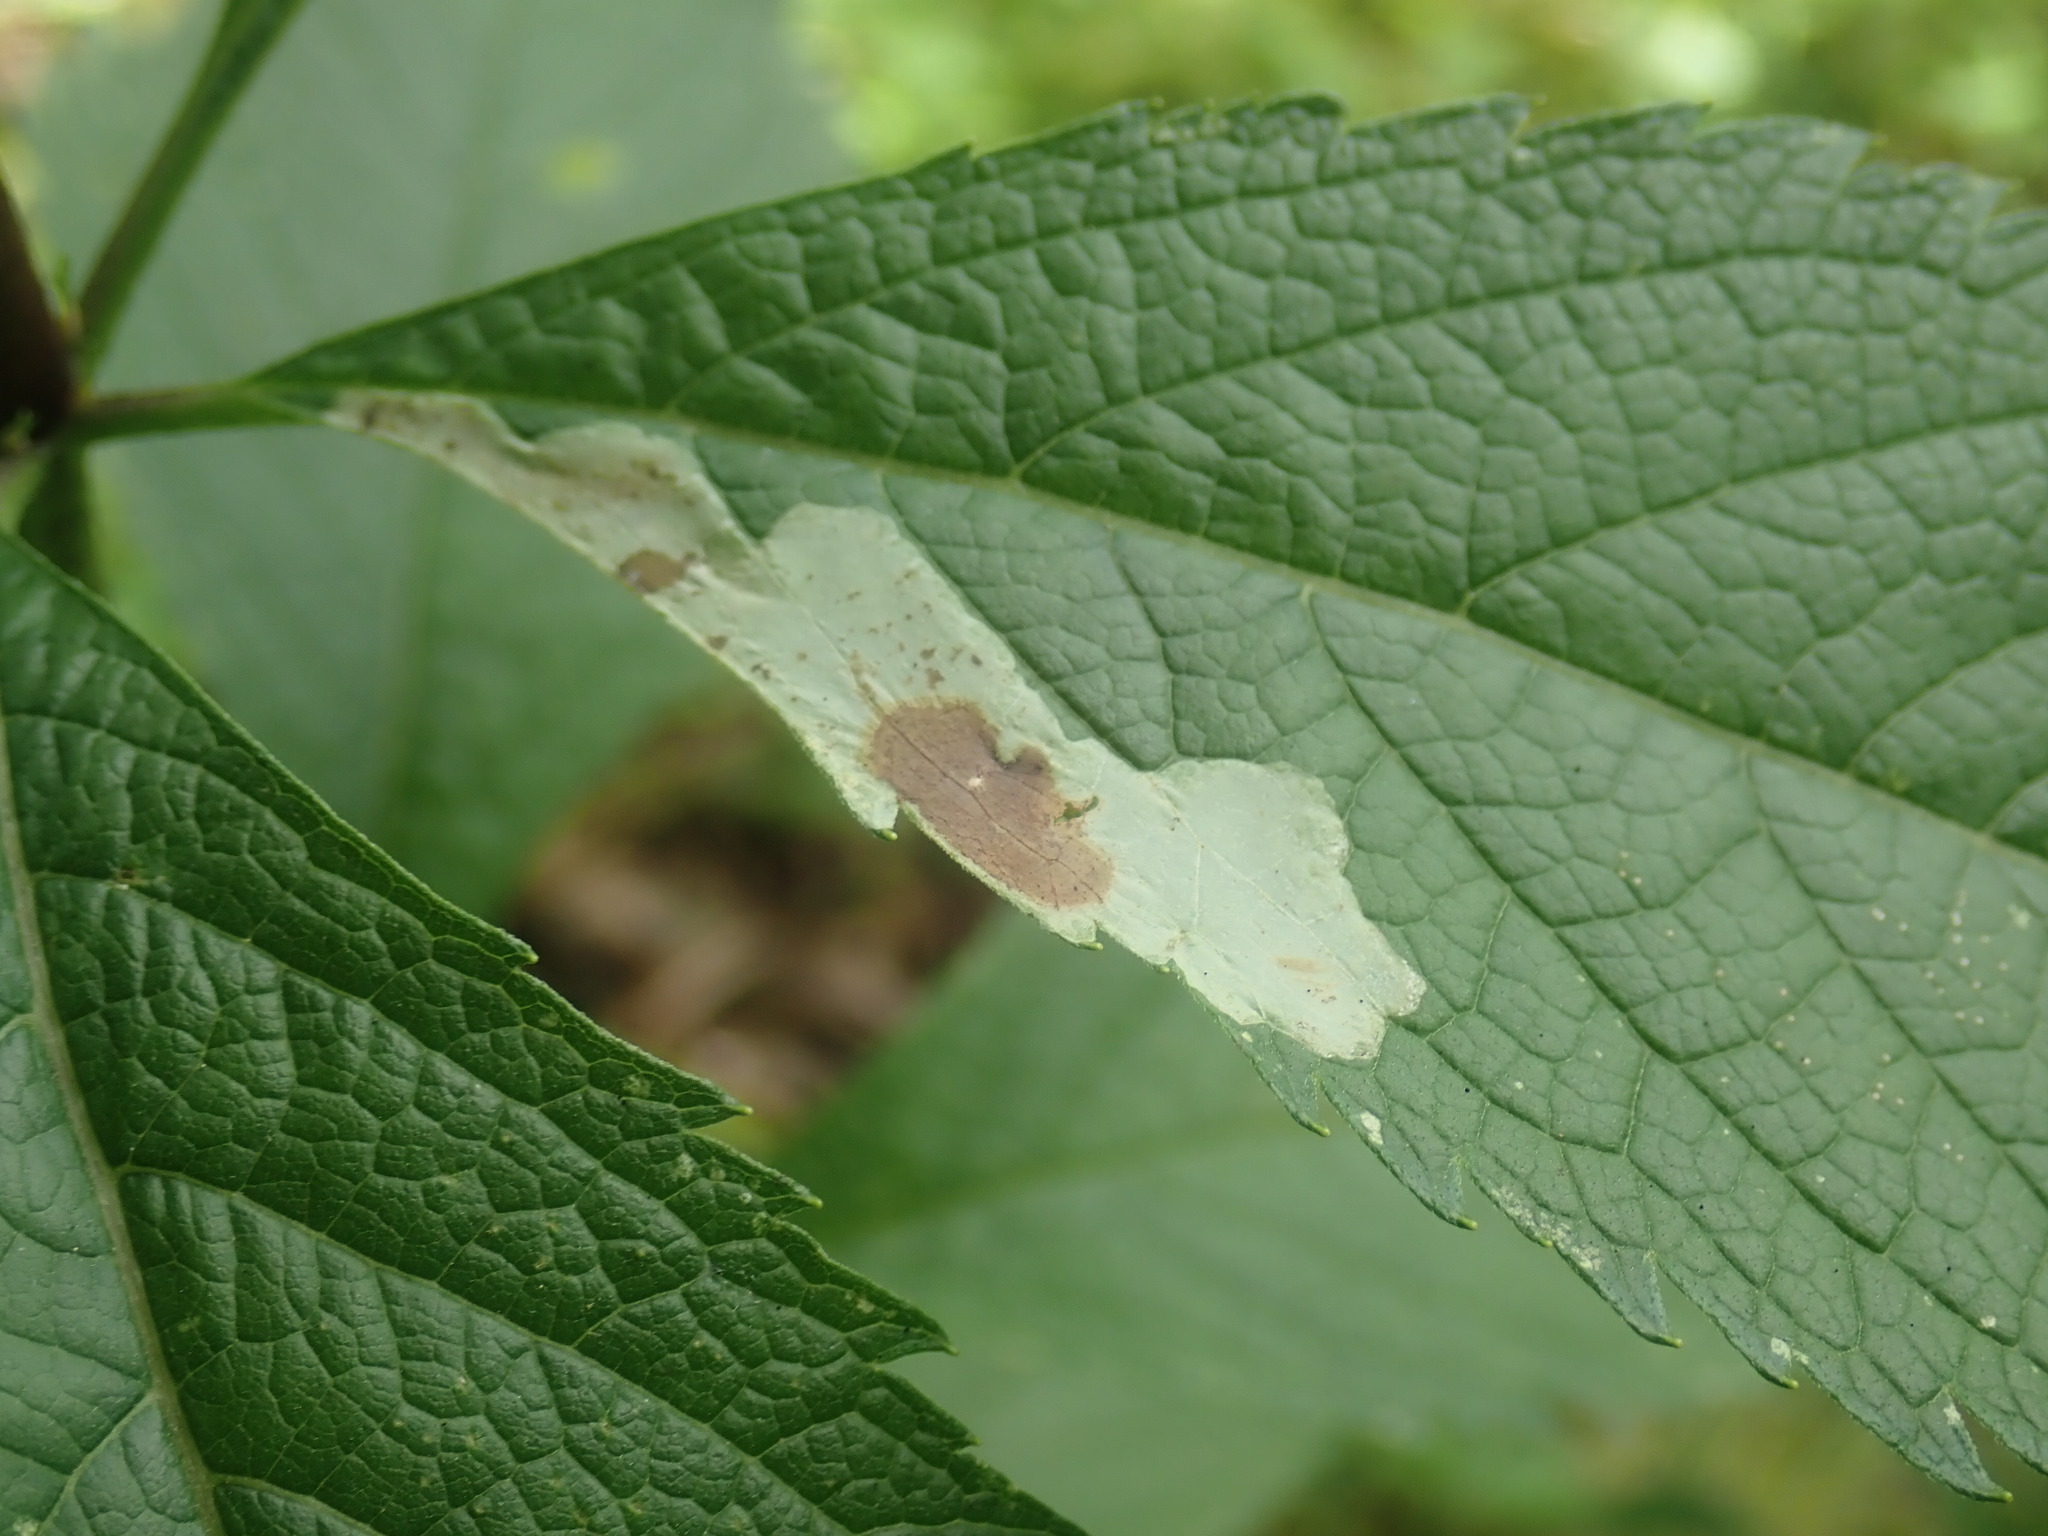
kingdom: Animalia
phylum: Arthropoda
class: Insecta
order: Diptera
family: Agromyzidae
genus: Calycomyza
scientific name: Calycomyza flavinotum
